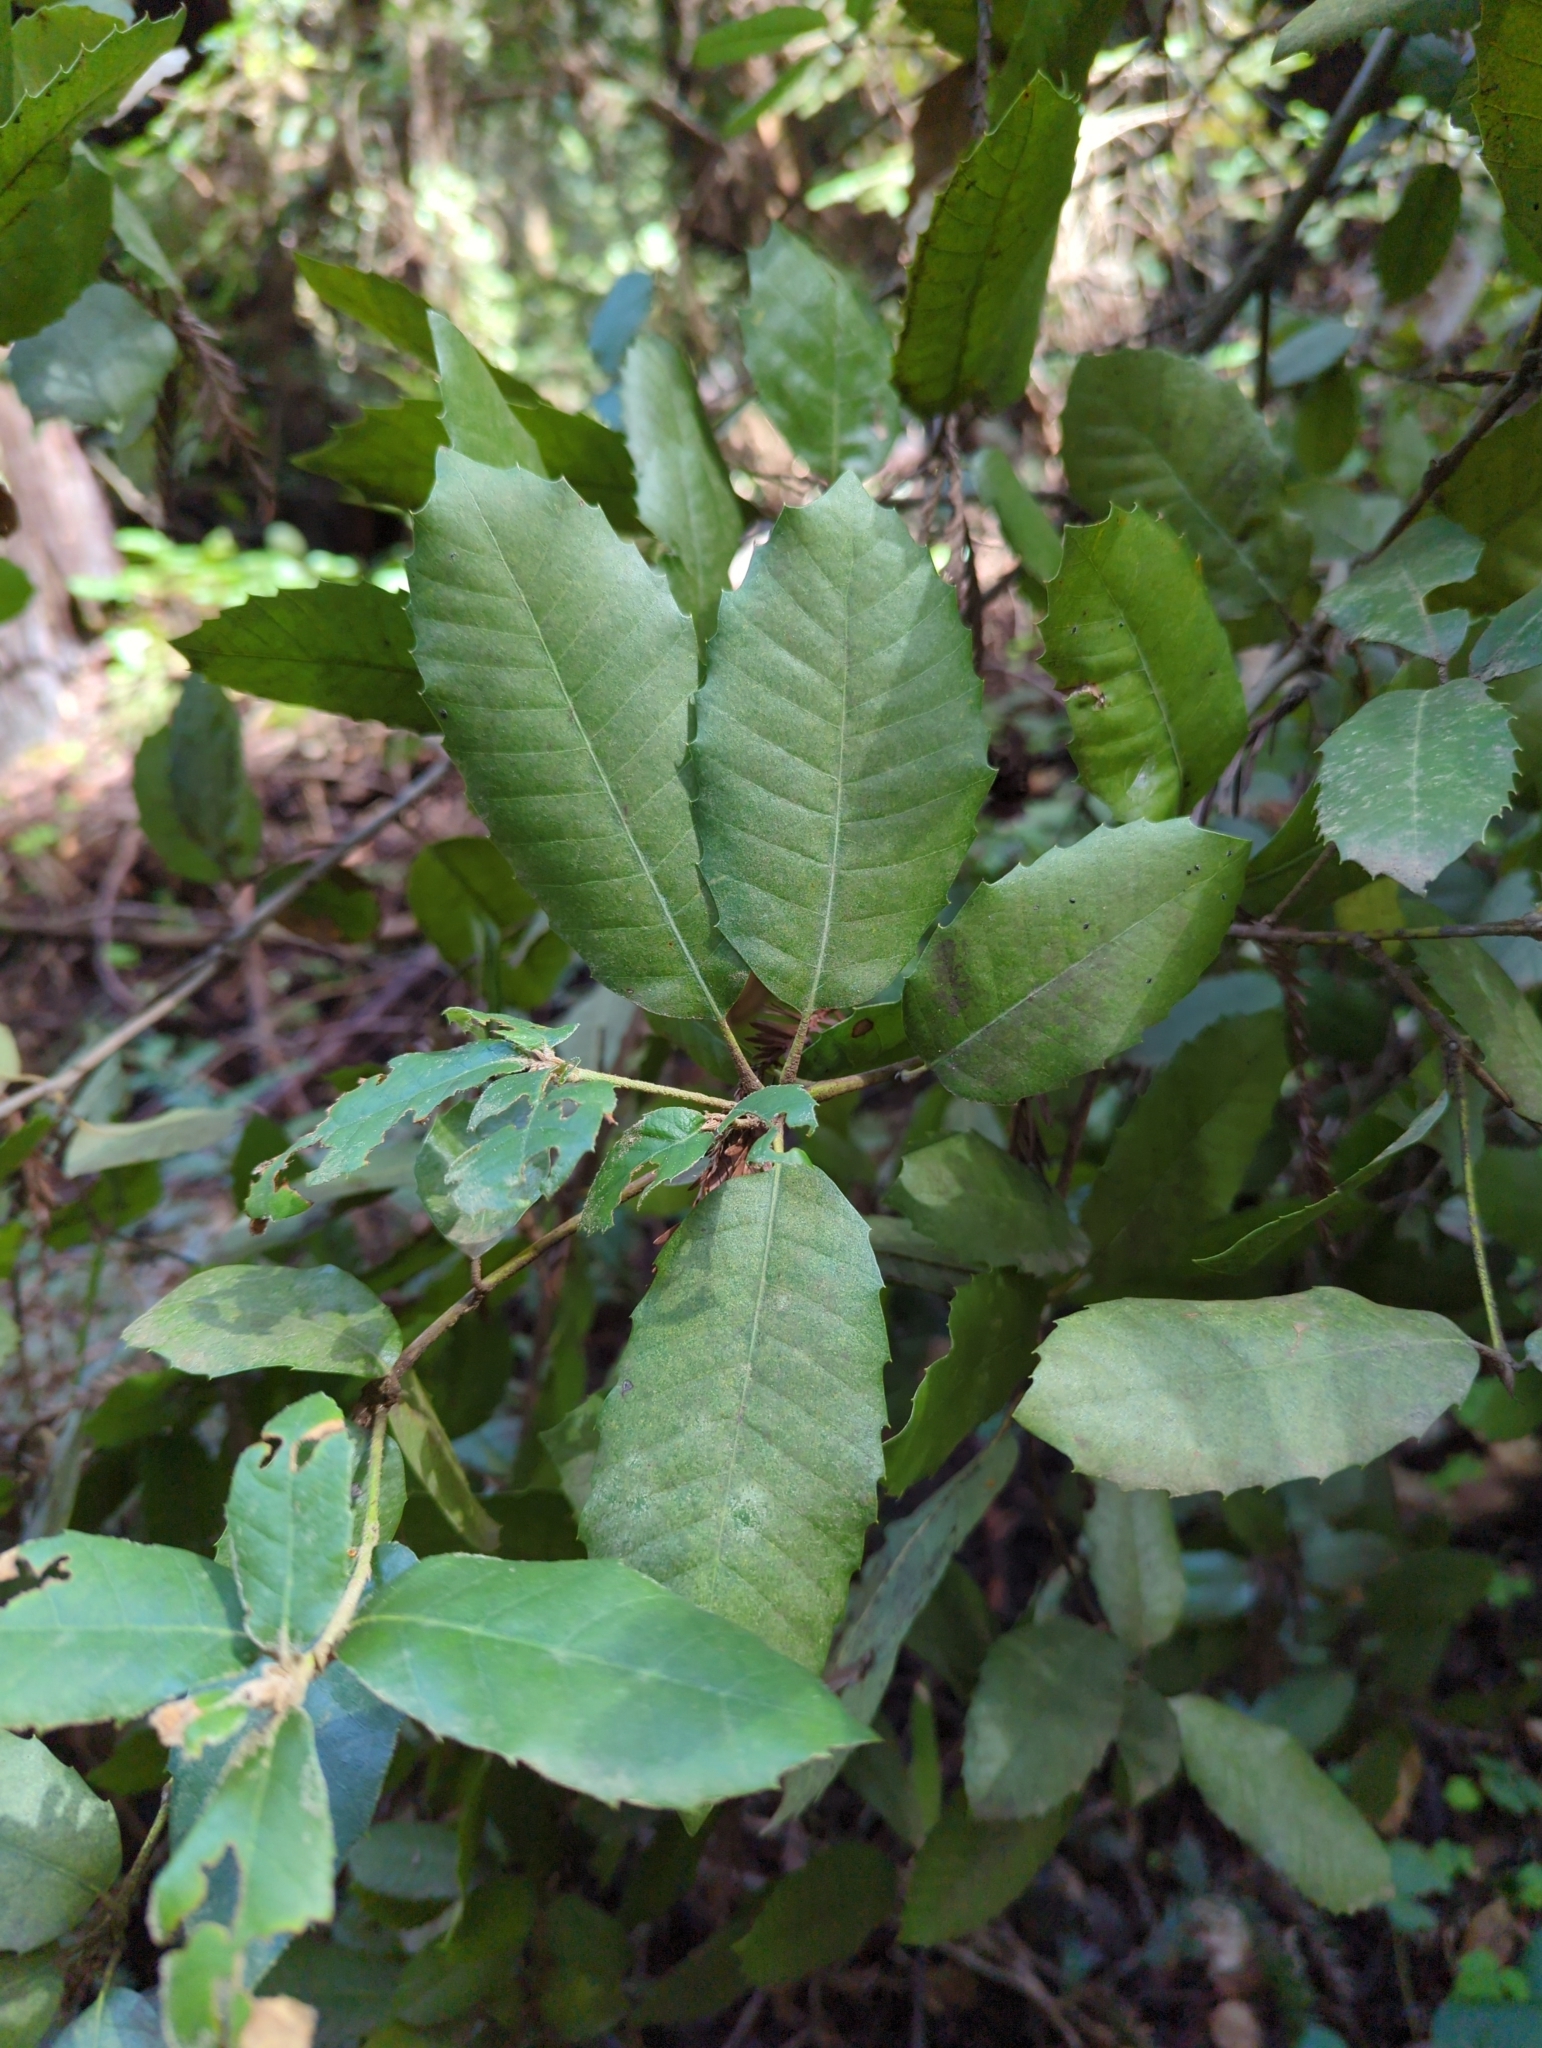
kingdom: Plantae
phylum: Tracheophyta
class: Magnoliopsida
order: Fagales
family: Fagaceae
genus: Notholithocarpus
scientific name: Notholithocarpus densiflorus
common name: Tan bark oak
